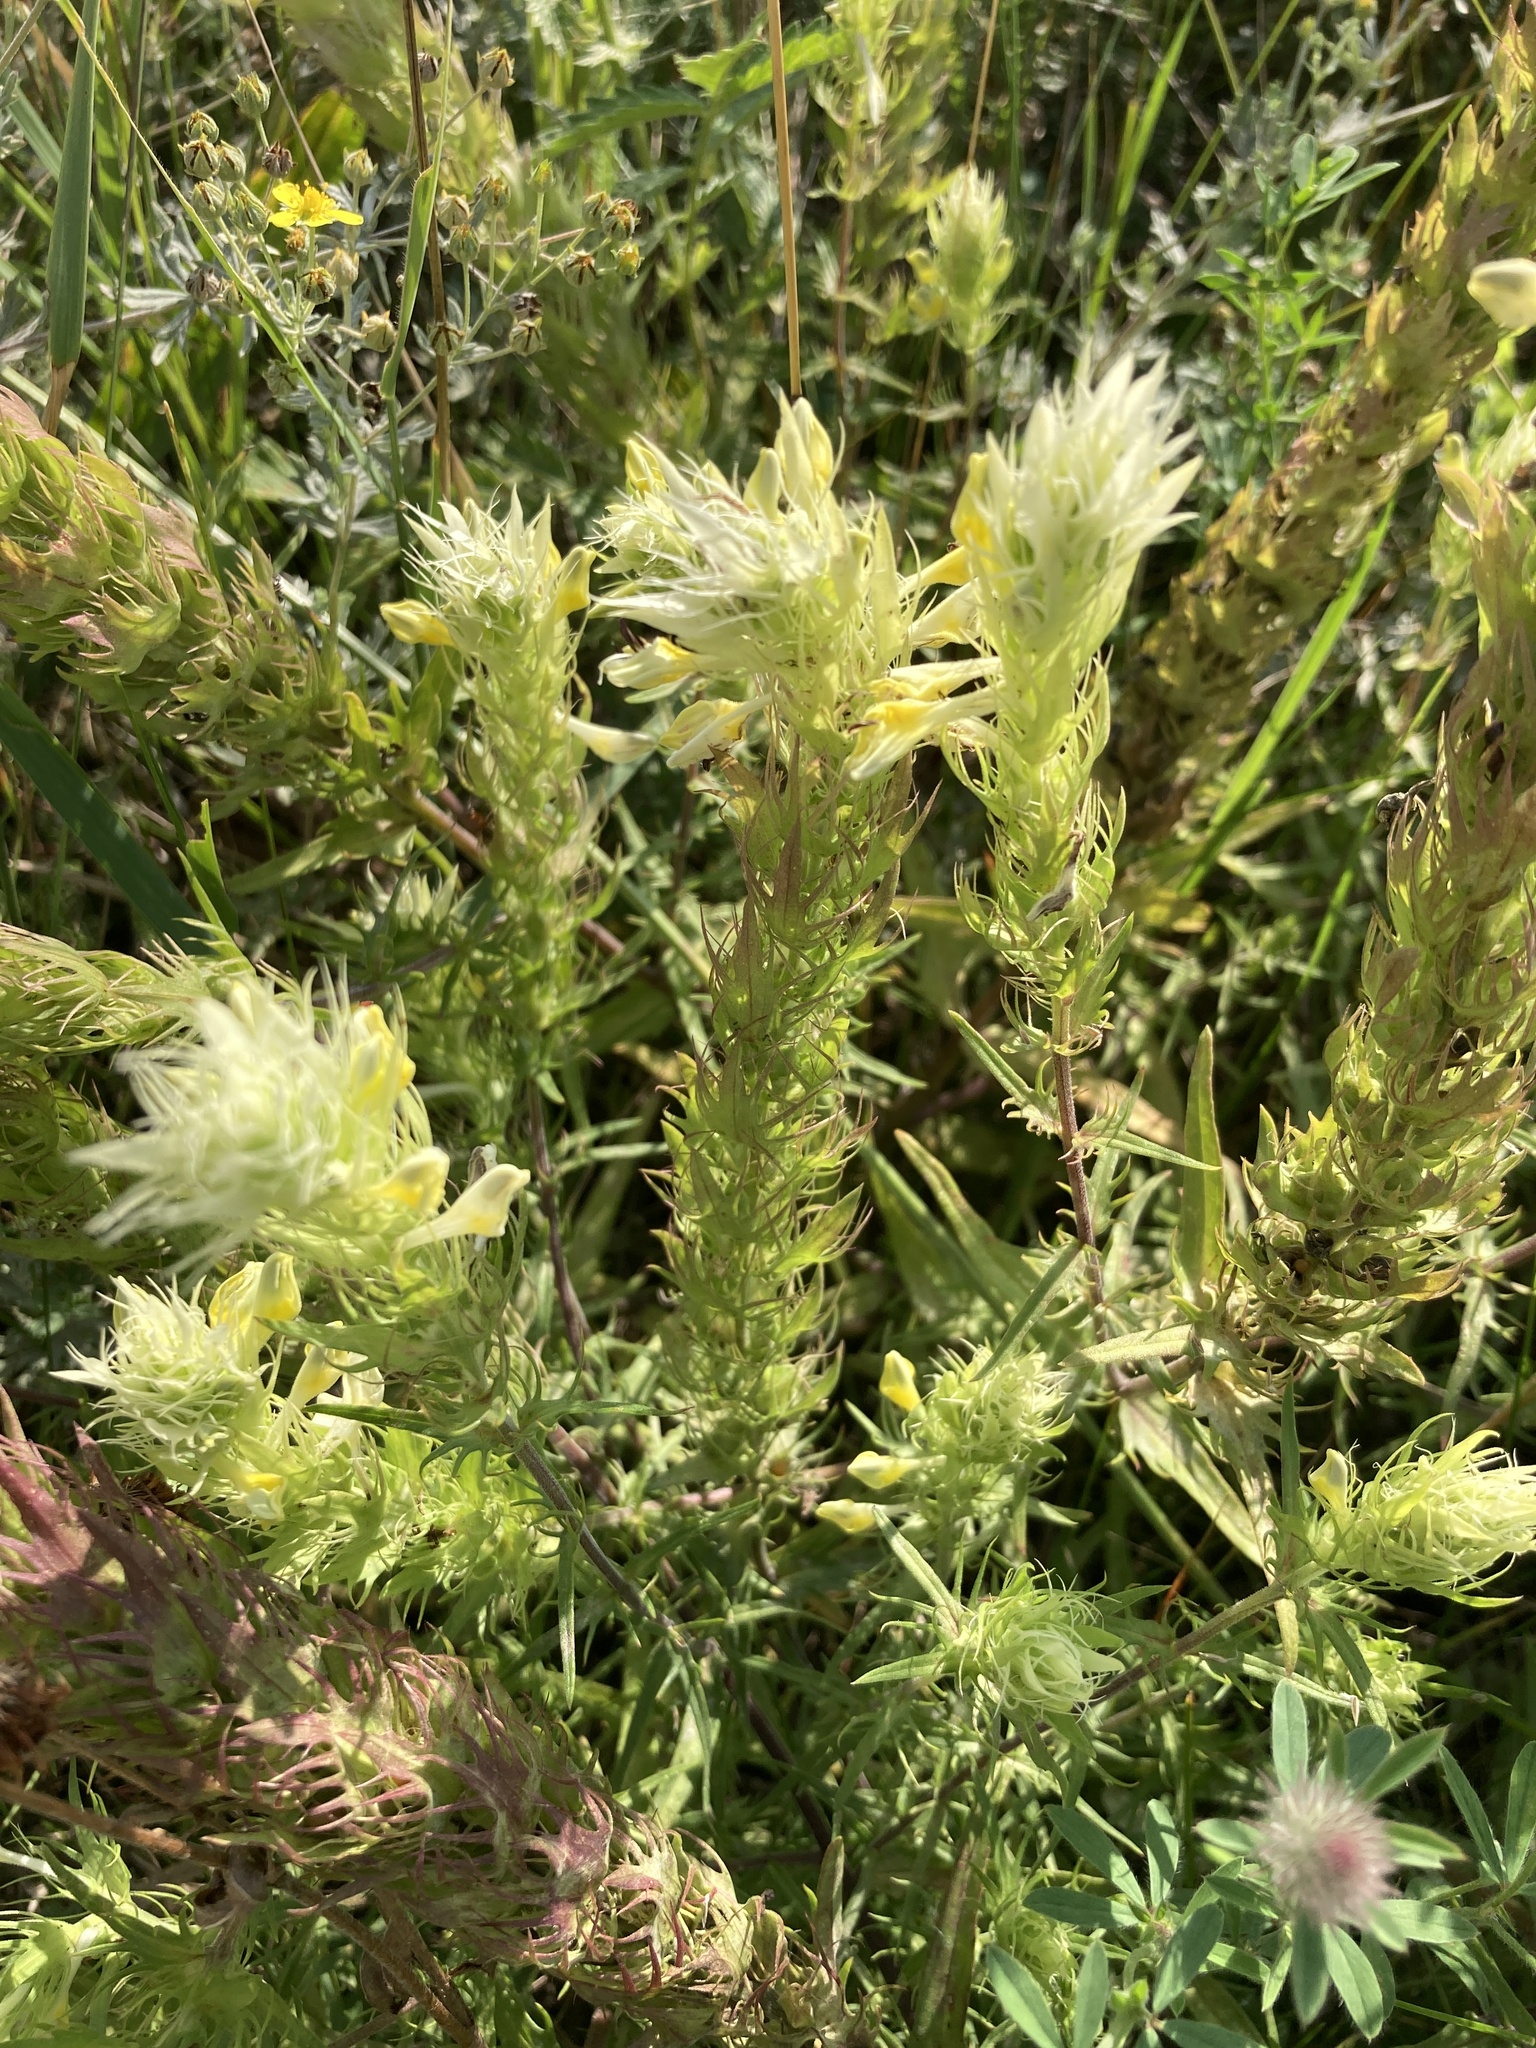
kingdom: Plantae
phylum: Tracheophyta
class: Magnoliopsida
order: Lamiales
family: Orobanchaceae
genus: Melampyrum
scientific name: Melampyrum arvense
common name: Field cow-wheat
